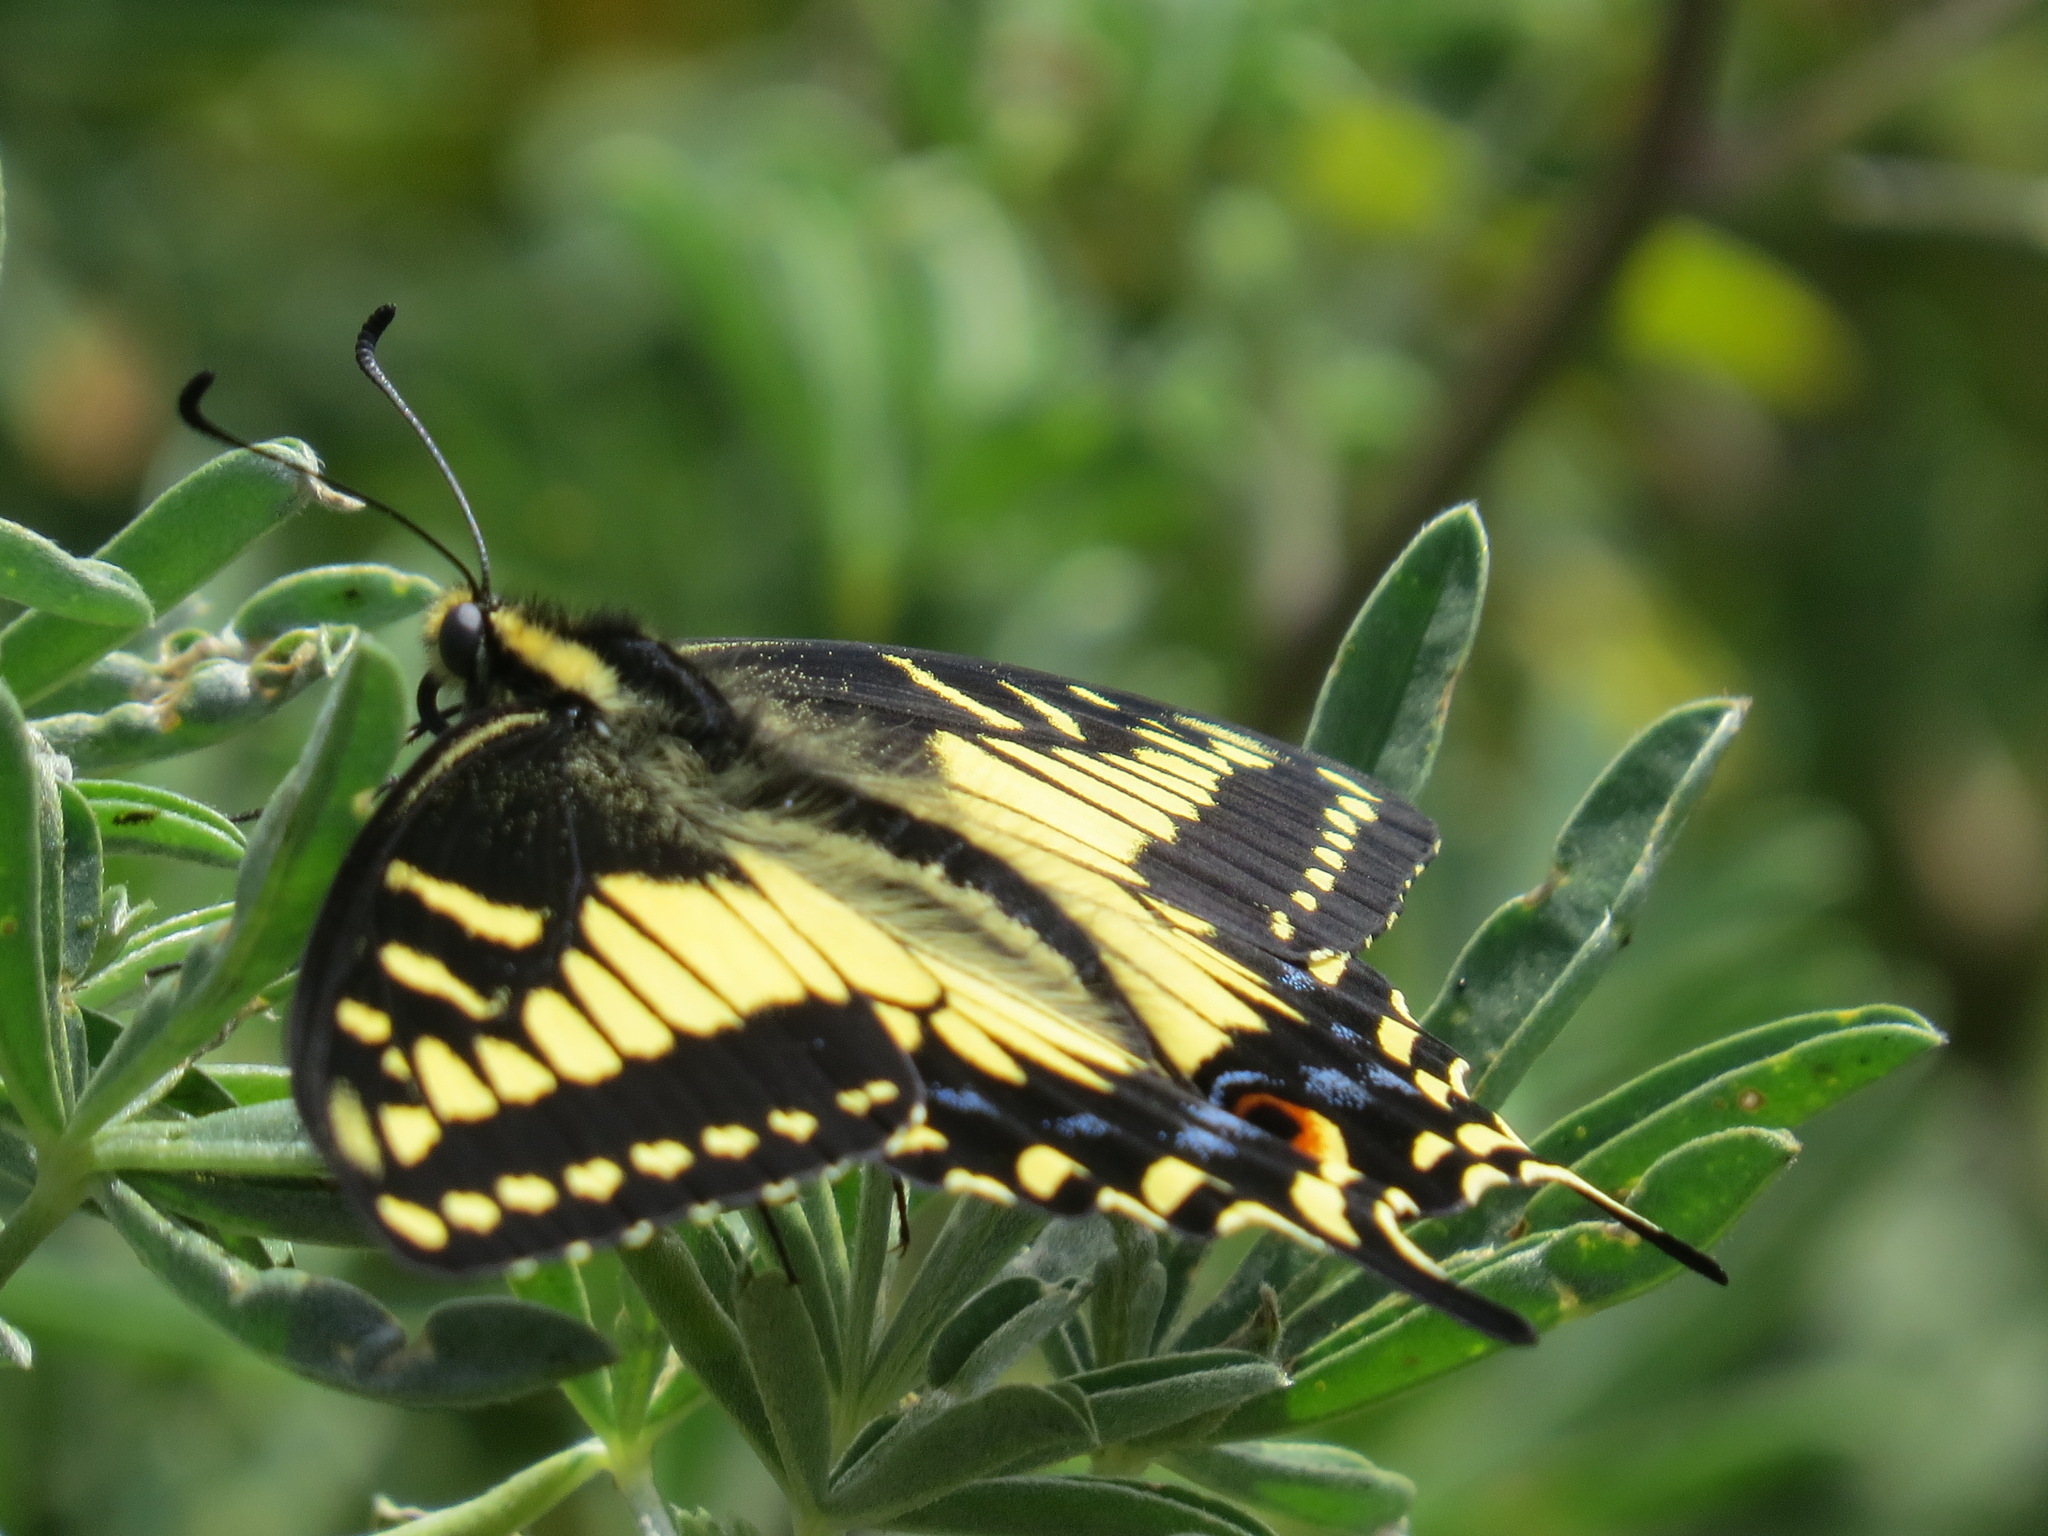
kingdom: Animalia
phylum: Arthropoda
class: Insecta
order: Lepidoptera
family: Papilionidae
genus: Papilio
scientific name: Papilio zelicaon
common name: Anise swallowtail
